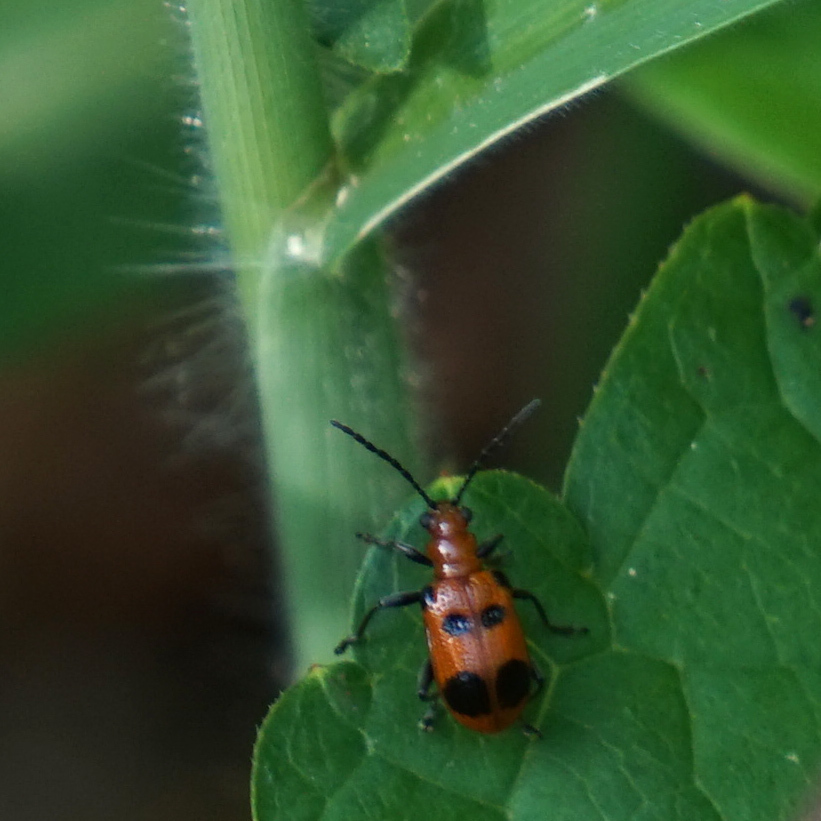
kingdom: Animalia
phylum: Arthropoda
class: Insecta
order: Coleoptera
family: Chrysomelidae
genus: Neolema
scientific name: Neolema sexpunctata
